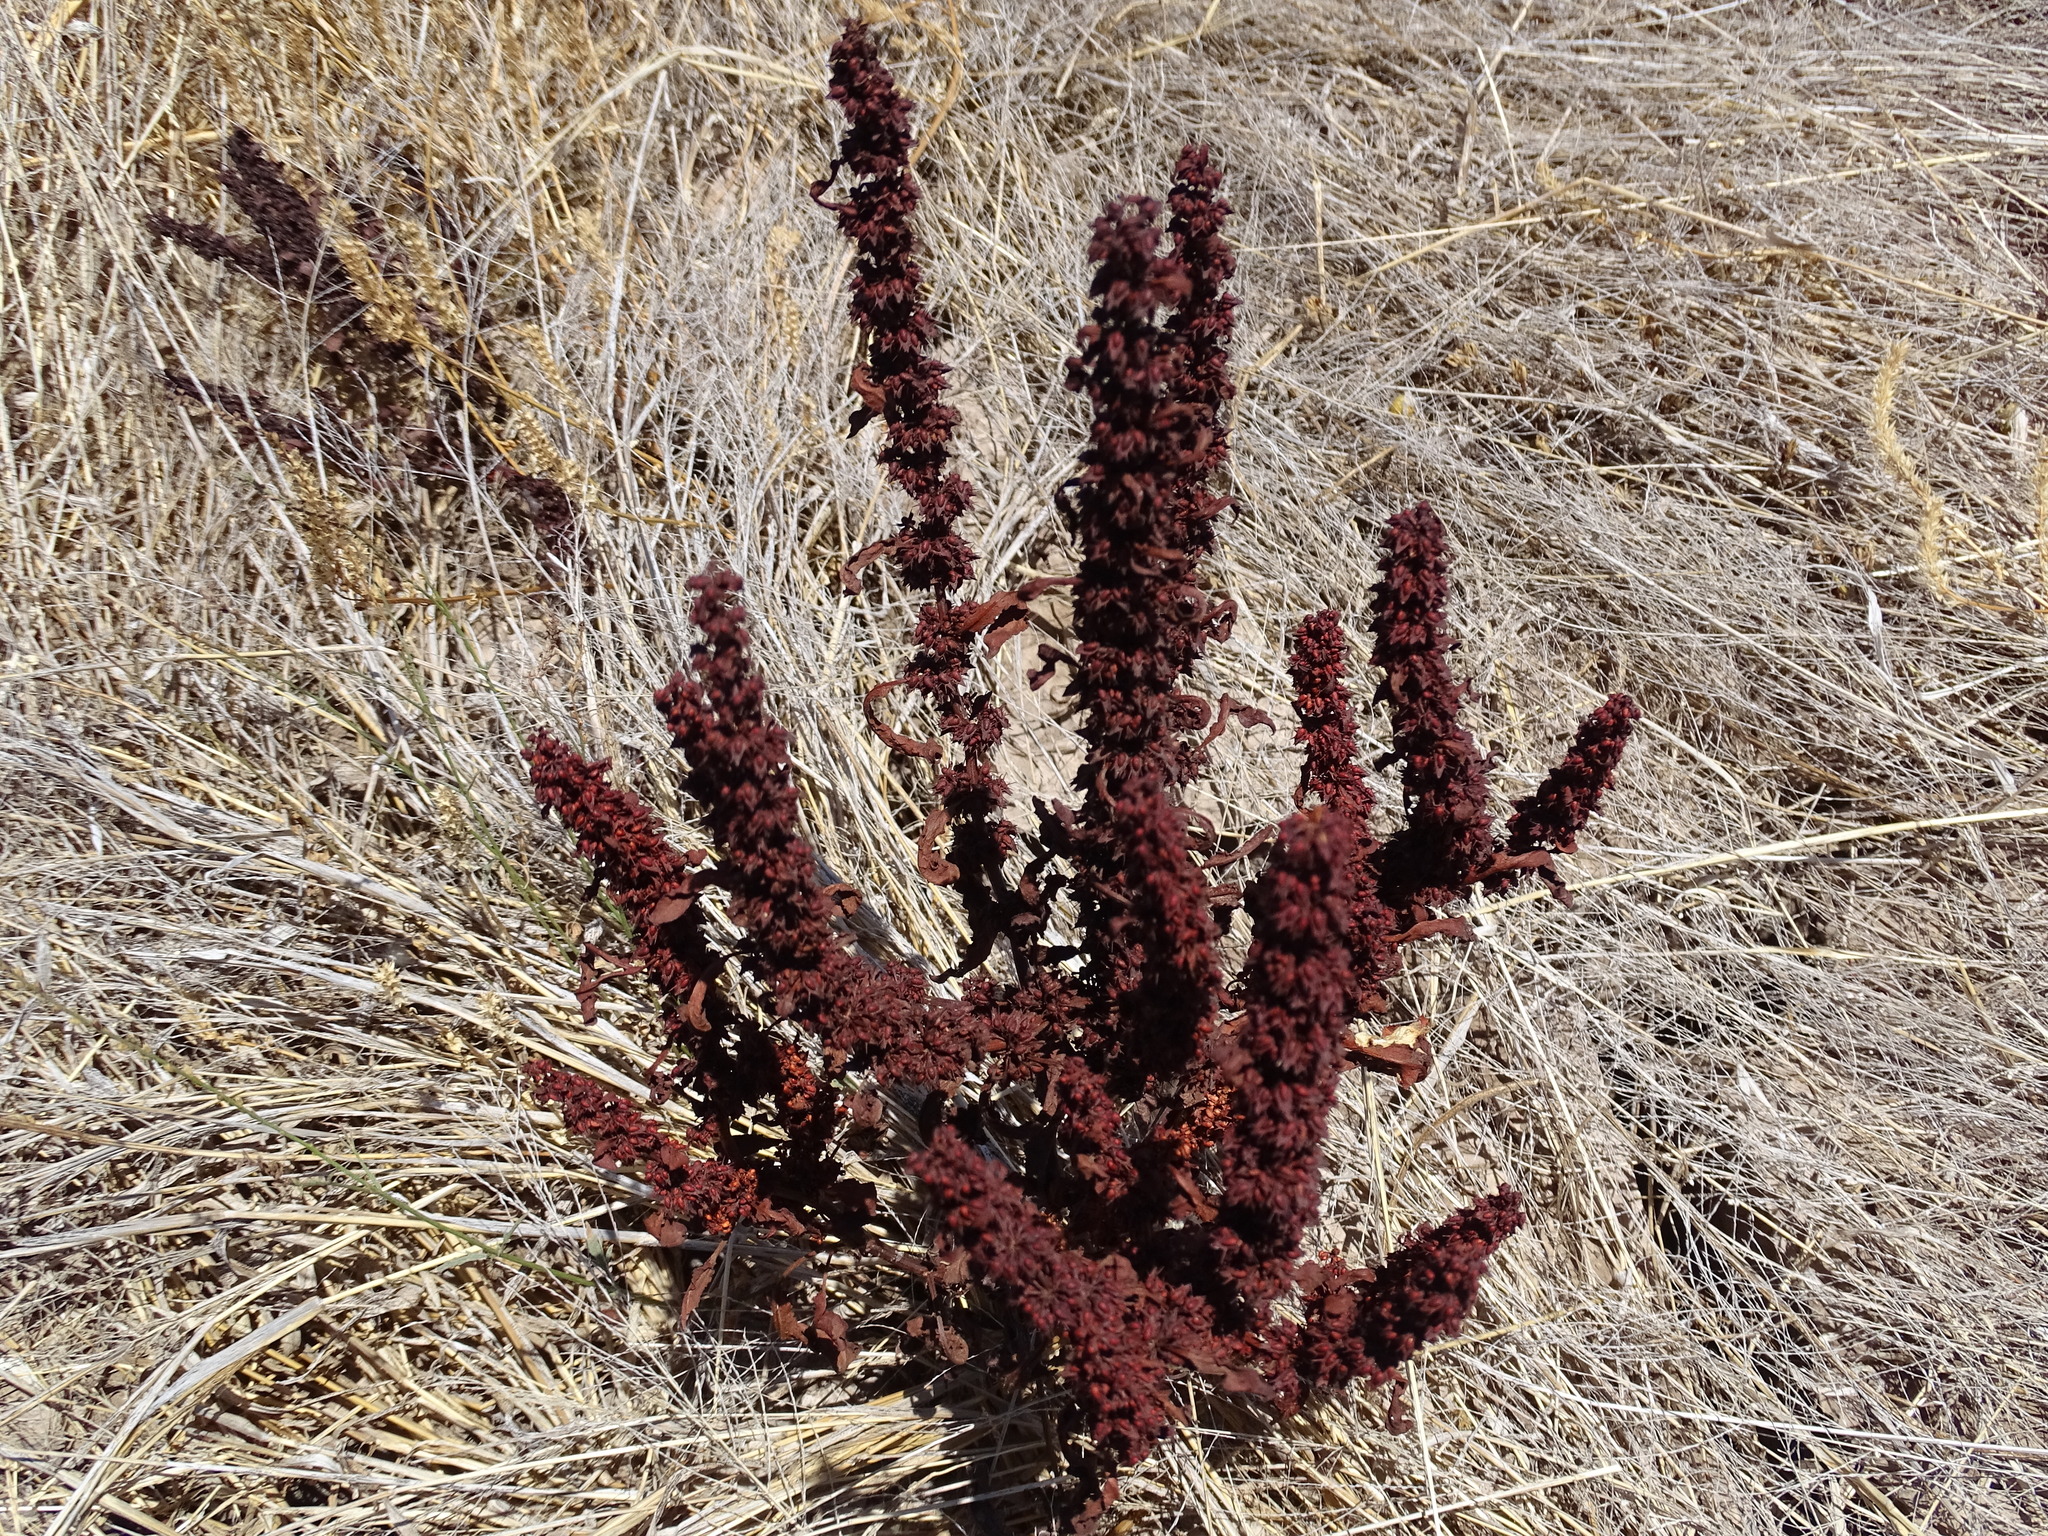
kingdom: Plantae
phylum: Tracheophyta
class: Magnoliopsida
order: Caryophyllales
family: Polygonaceae
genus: Rumex
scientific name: Rumex crispus
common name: Curled dock
